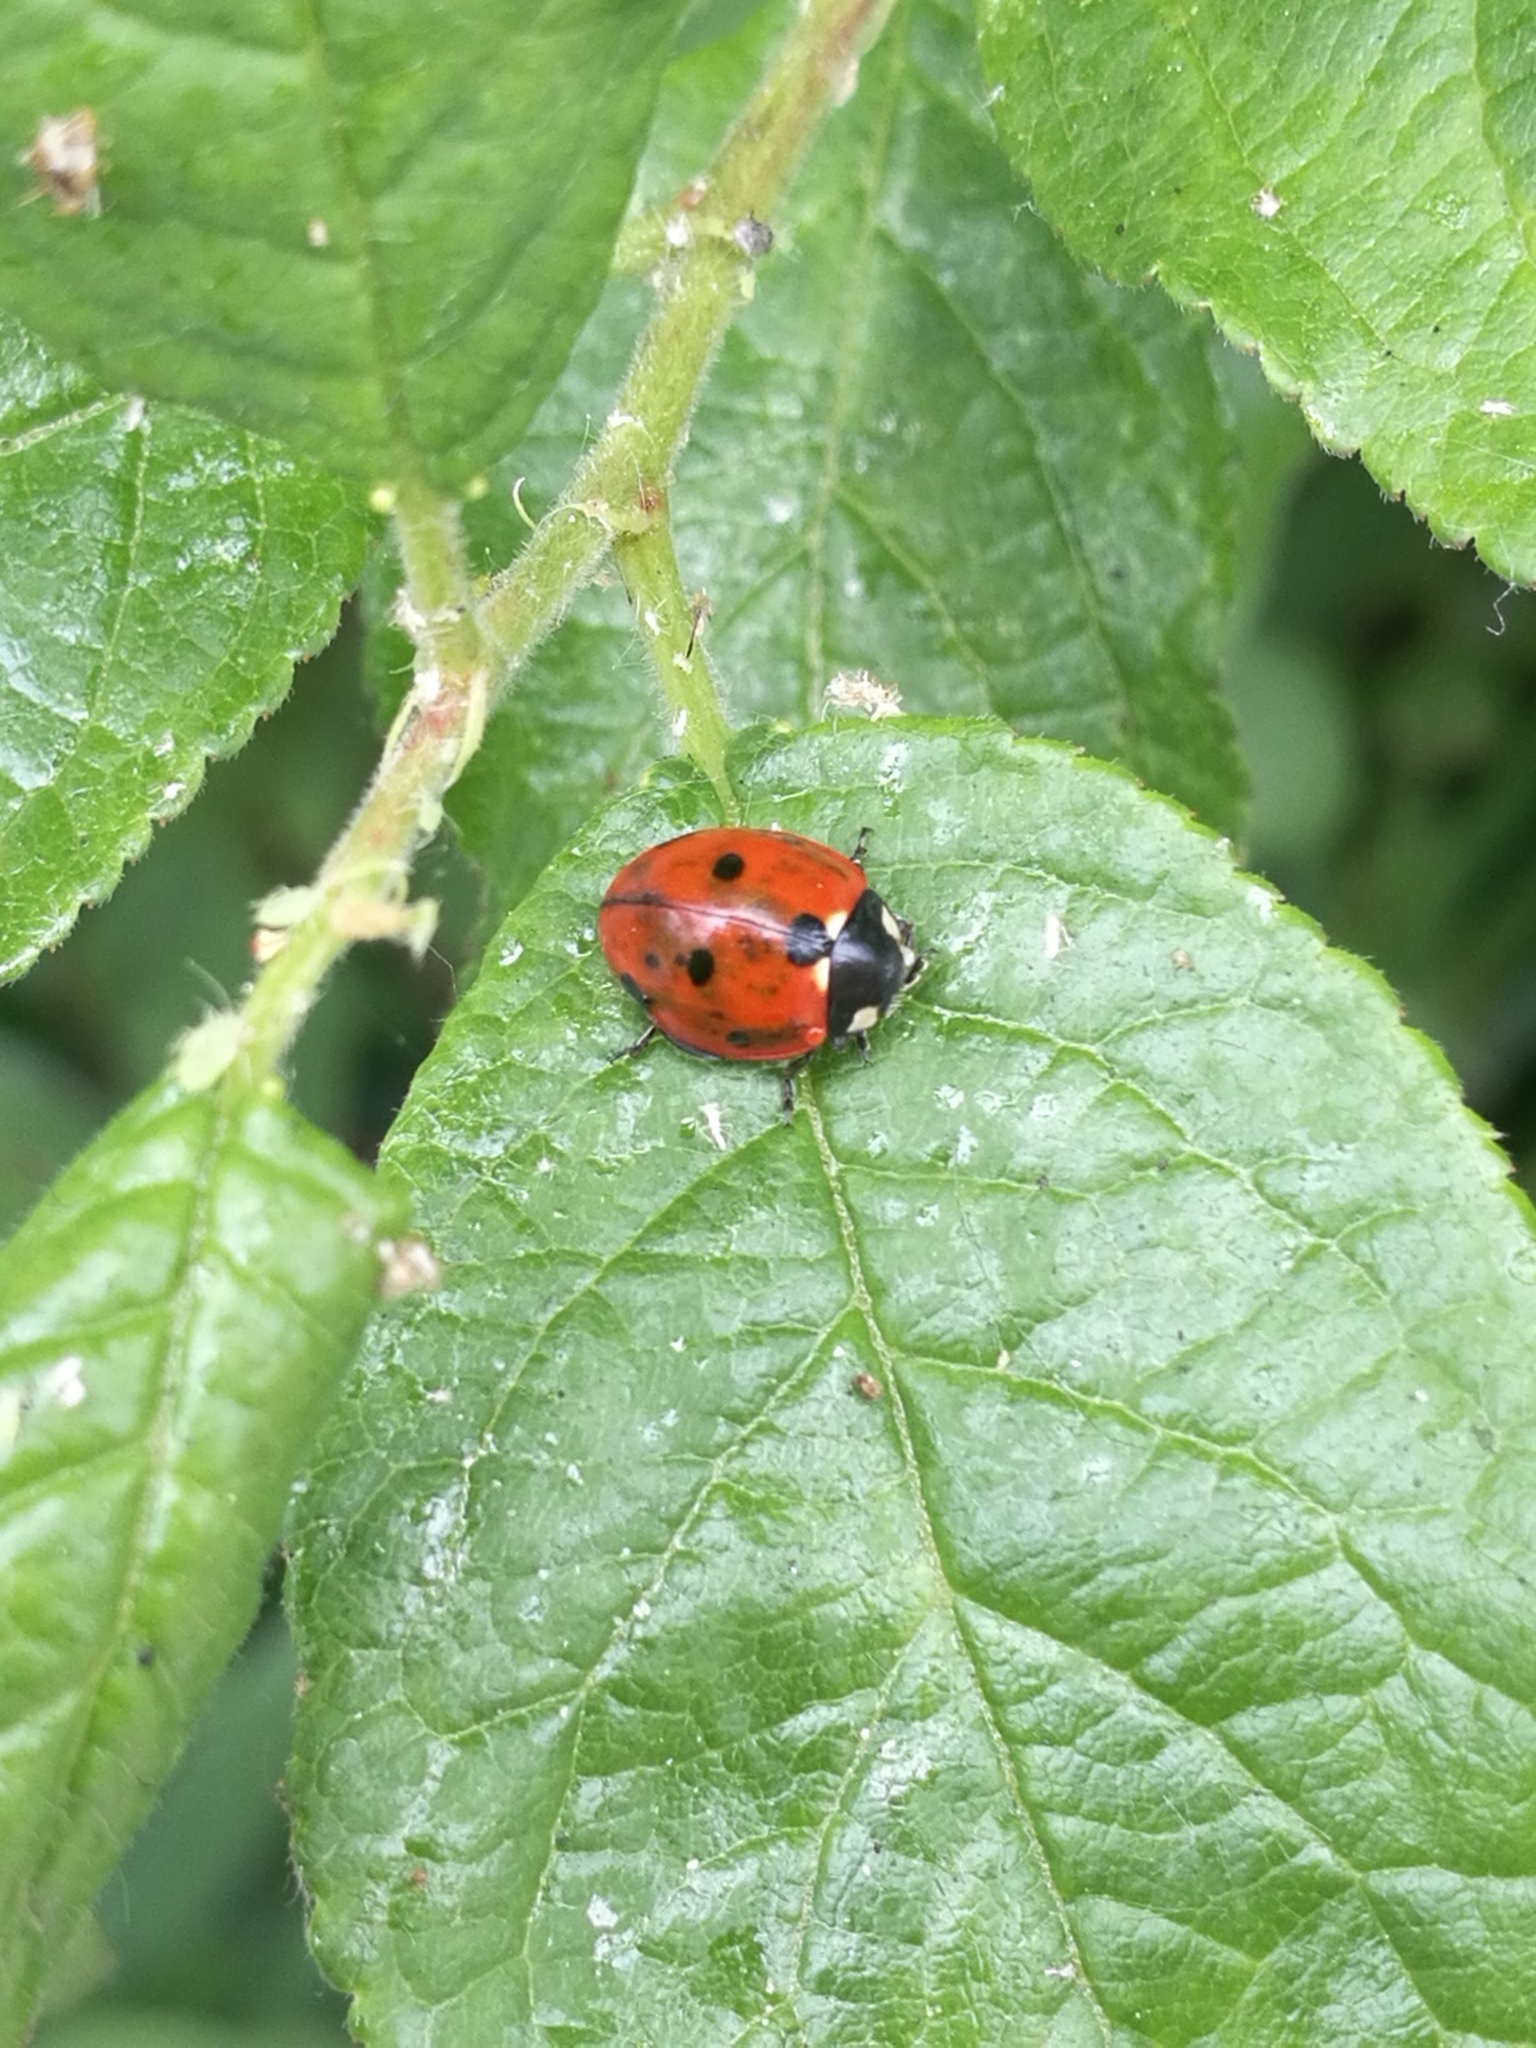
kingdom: Animalia
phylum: Arthropoda
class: Insecta
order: Coleoptera
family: Coccinellidae
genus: Coccinella
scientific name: Coccinella septempunctata
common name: Sevenspotted lady beetle
